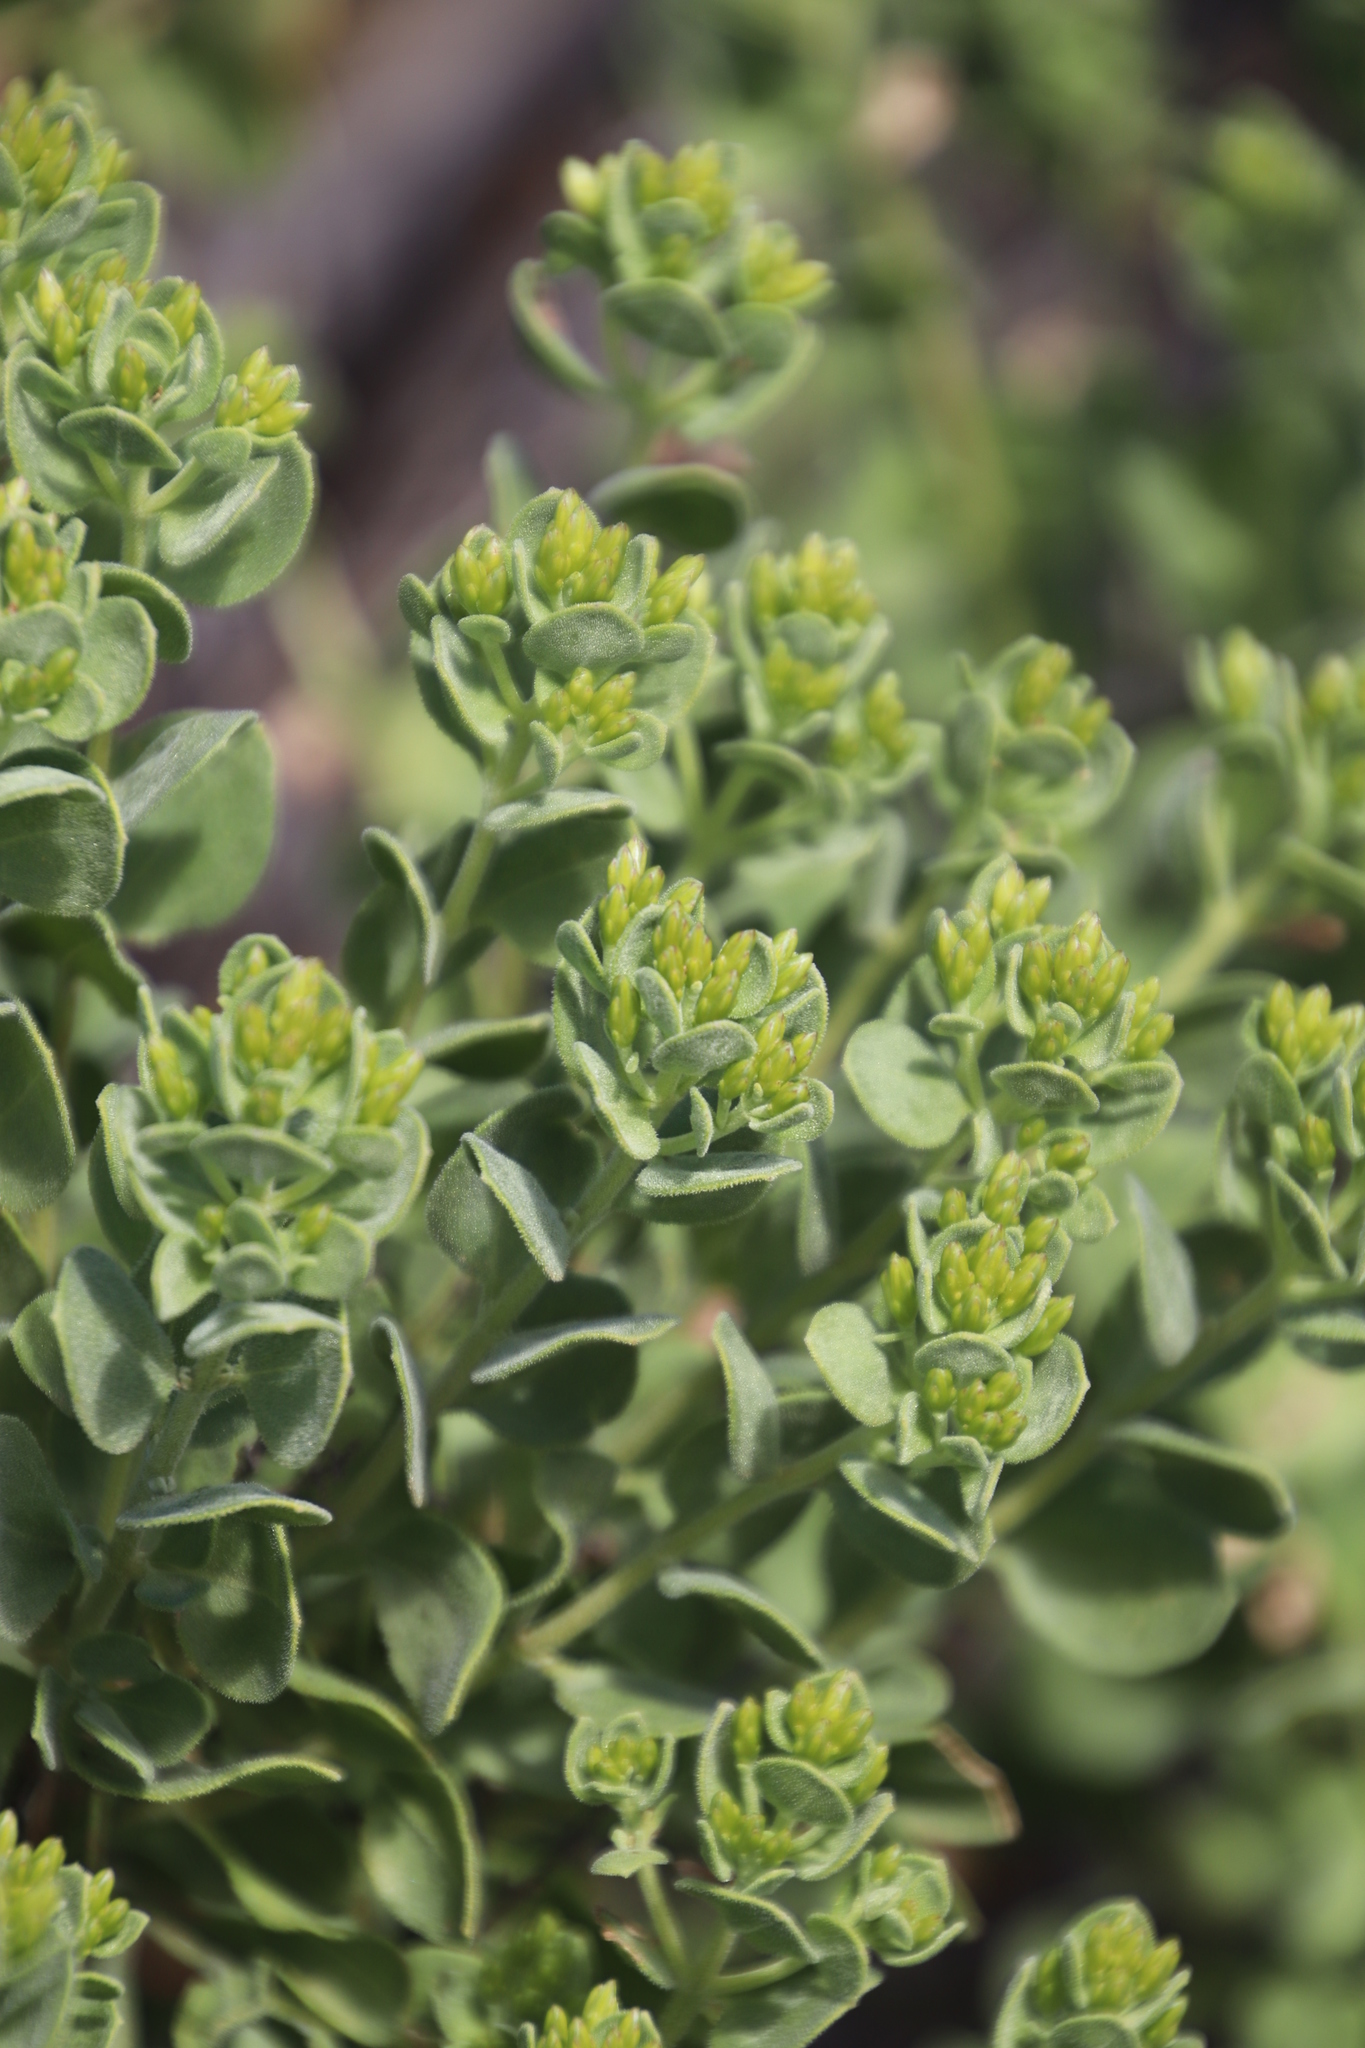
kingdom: Plantae
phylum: Tracheophyta
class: Magnoliopsida
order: Asterales
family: Asteraceae
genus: Pteronia
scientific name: Pteronia divaricata
